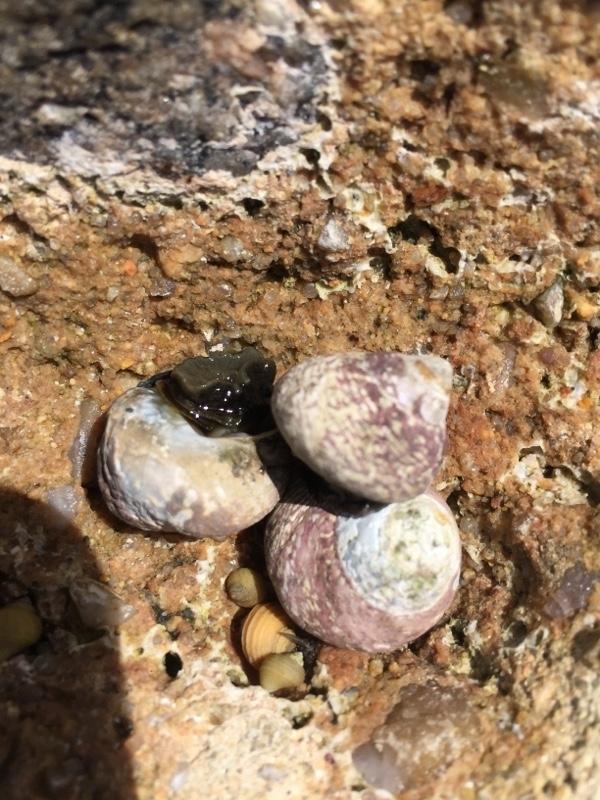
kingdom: Animalia
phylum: Mollusca
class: Gastropoda
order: Trochida
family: Trochidae
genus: Phorcus
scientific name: Phorcus lineatus
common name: Toothed top shell
